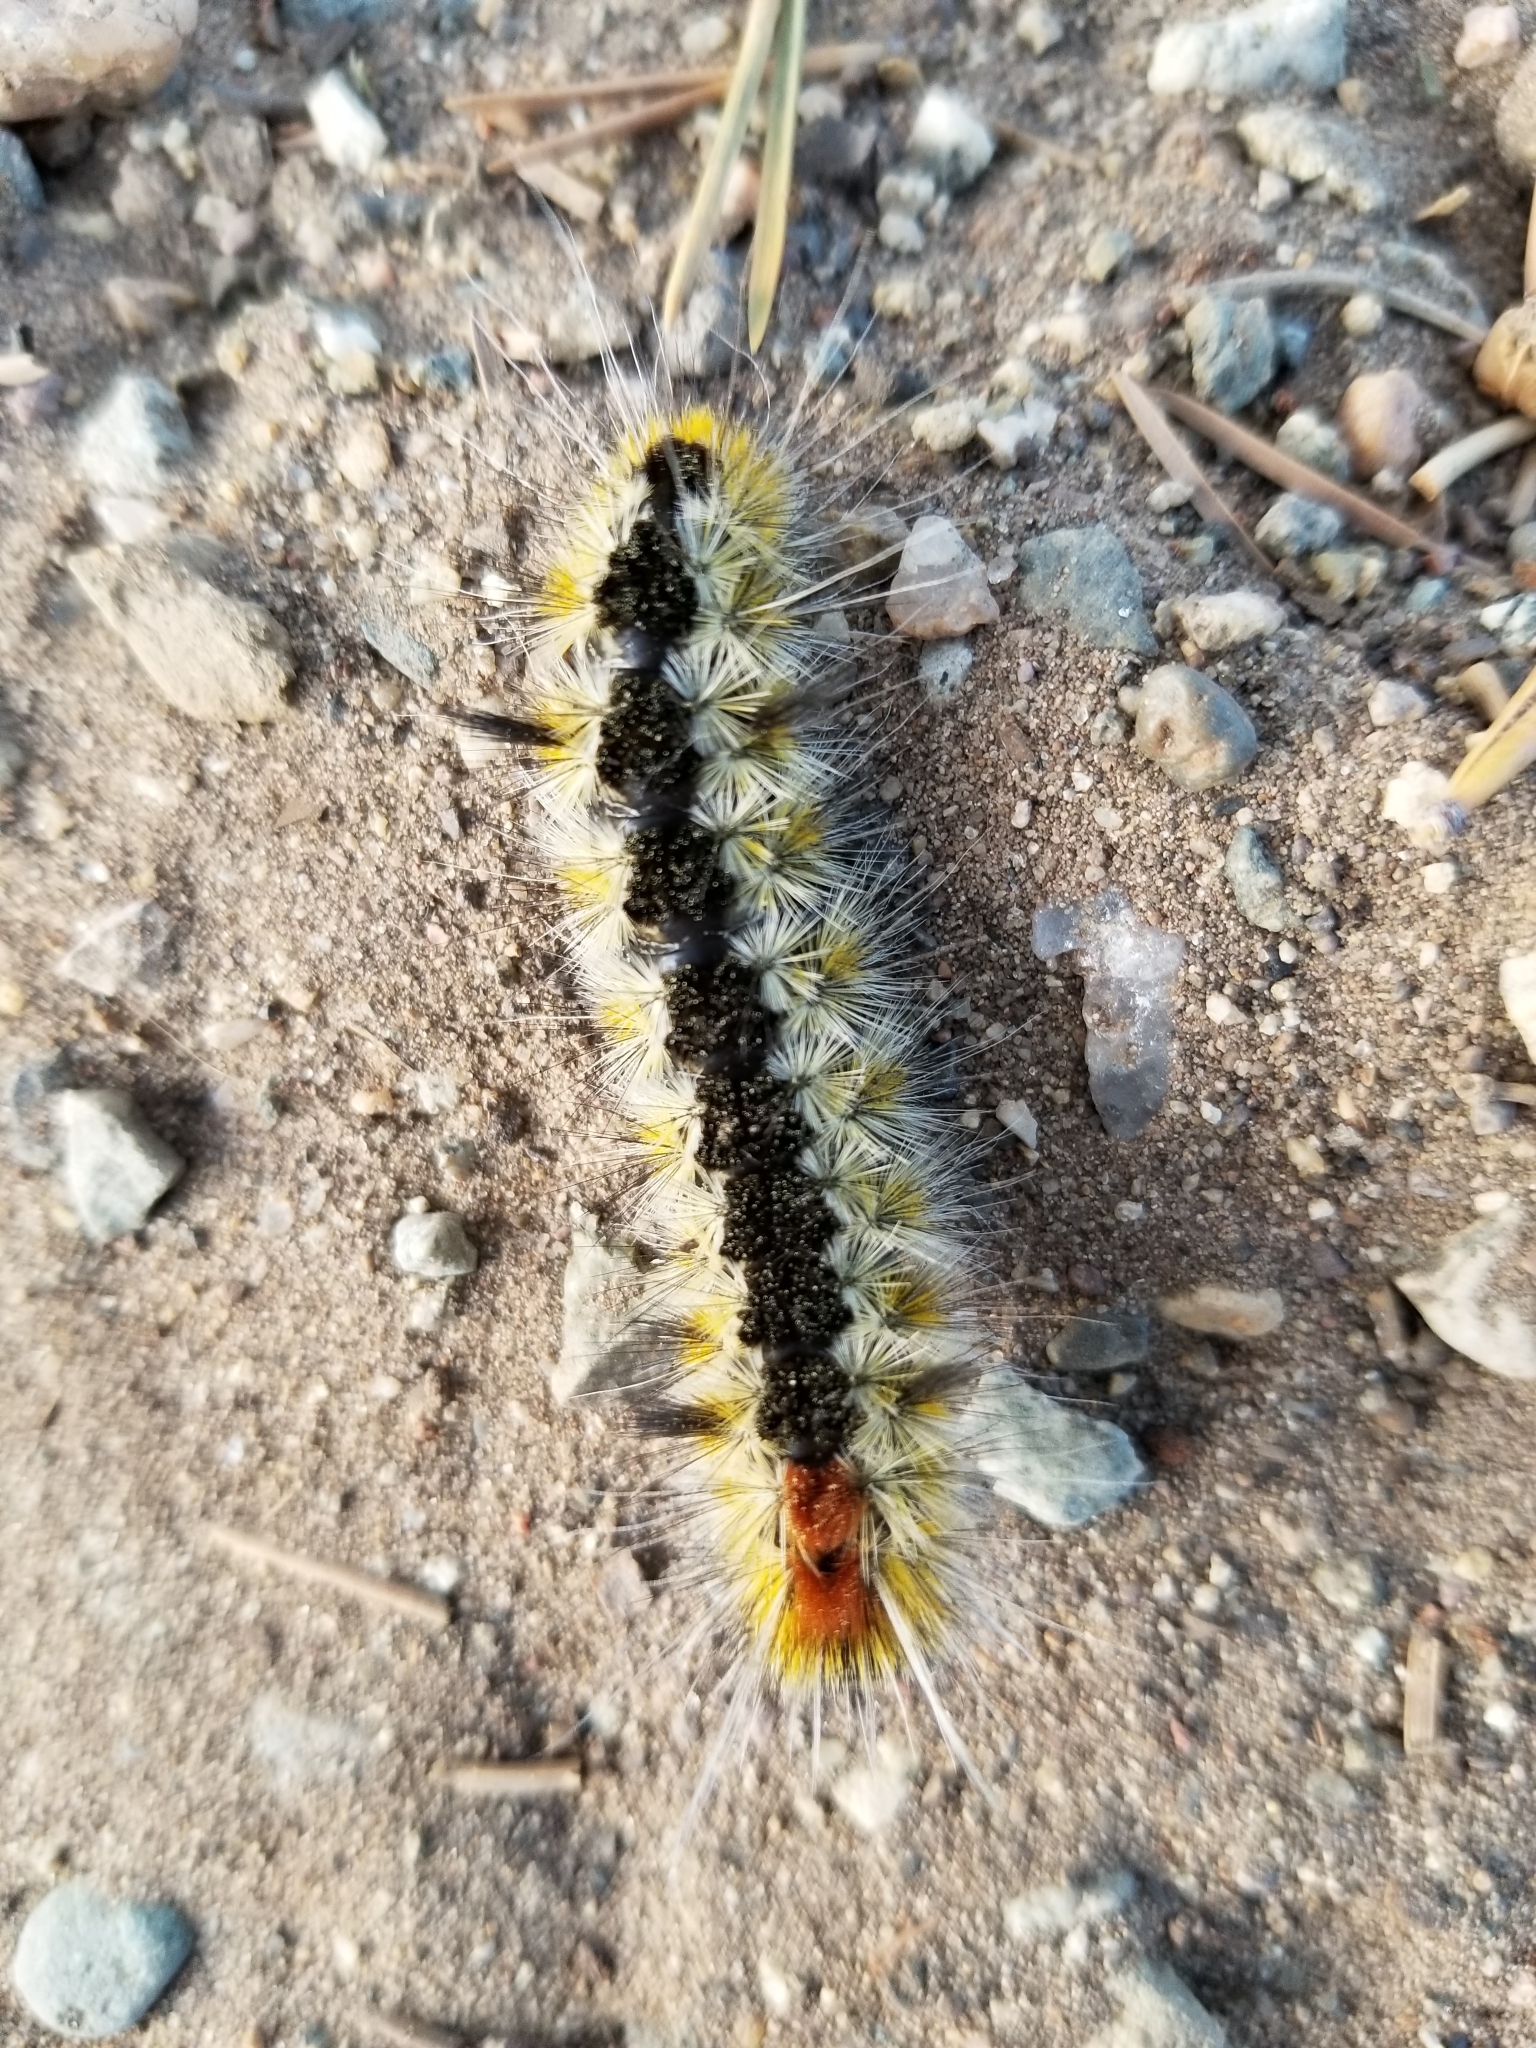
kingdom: Animalia
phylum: Arthropoda
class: Insecta
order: Lepidoptera
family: Erebidae
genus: Lophocampa
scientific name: Lophocampa ingens
